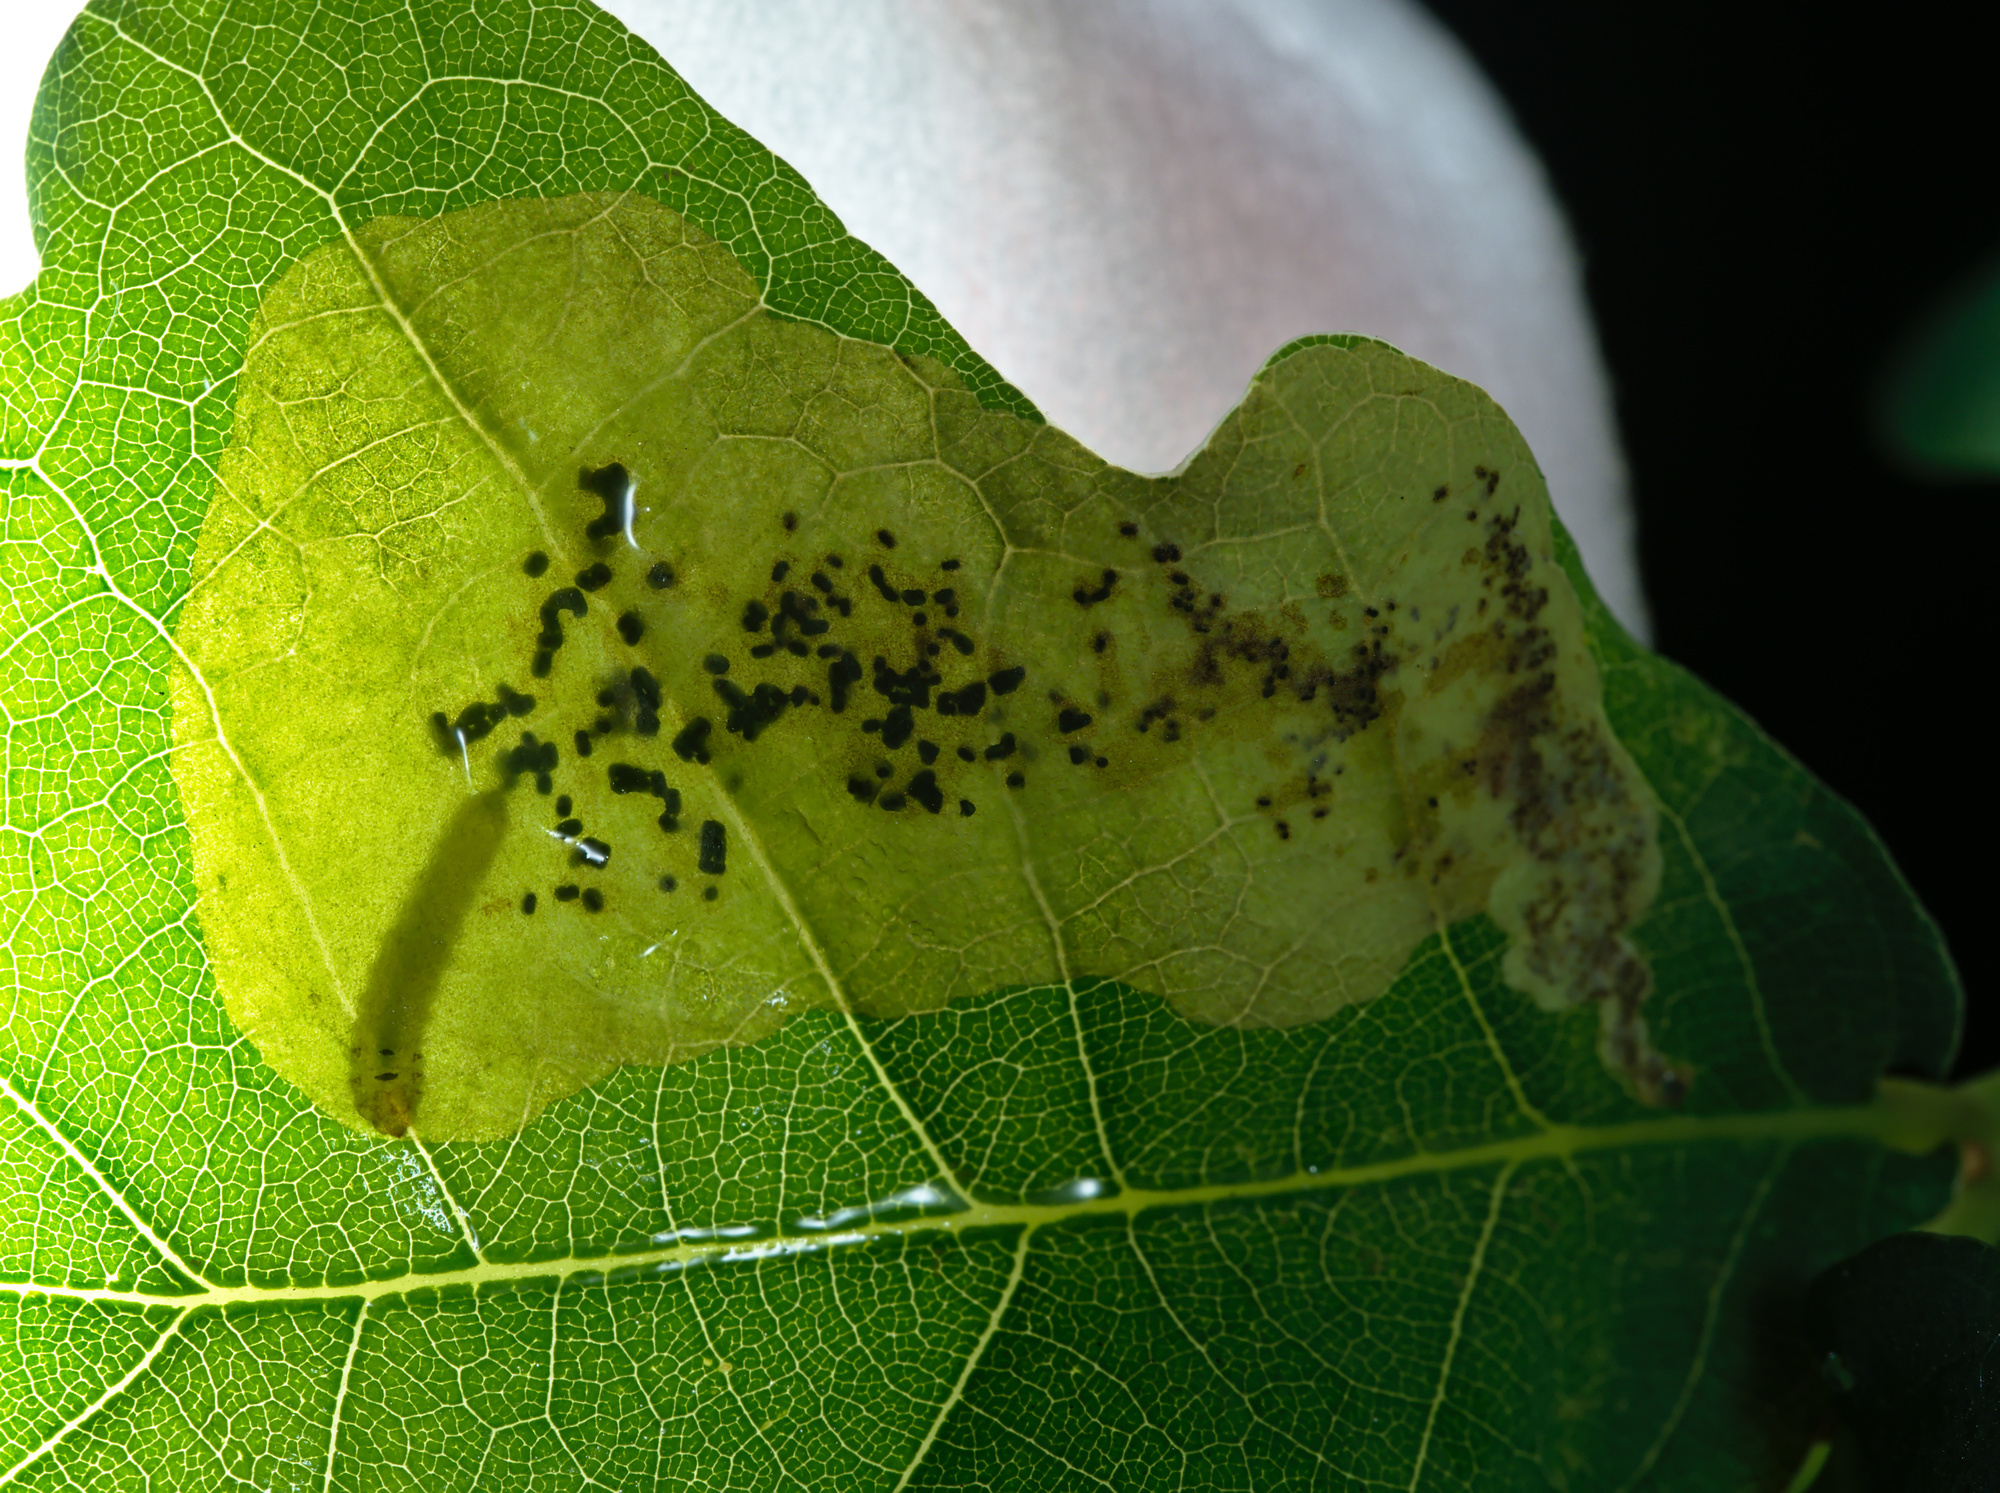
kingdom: Animalia
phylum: Arthropoda
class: Insecta
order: Hymenoptera
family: Tenthredinidae
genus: Profenusa
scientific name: Profenusa pygmaea
